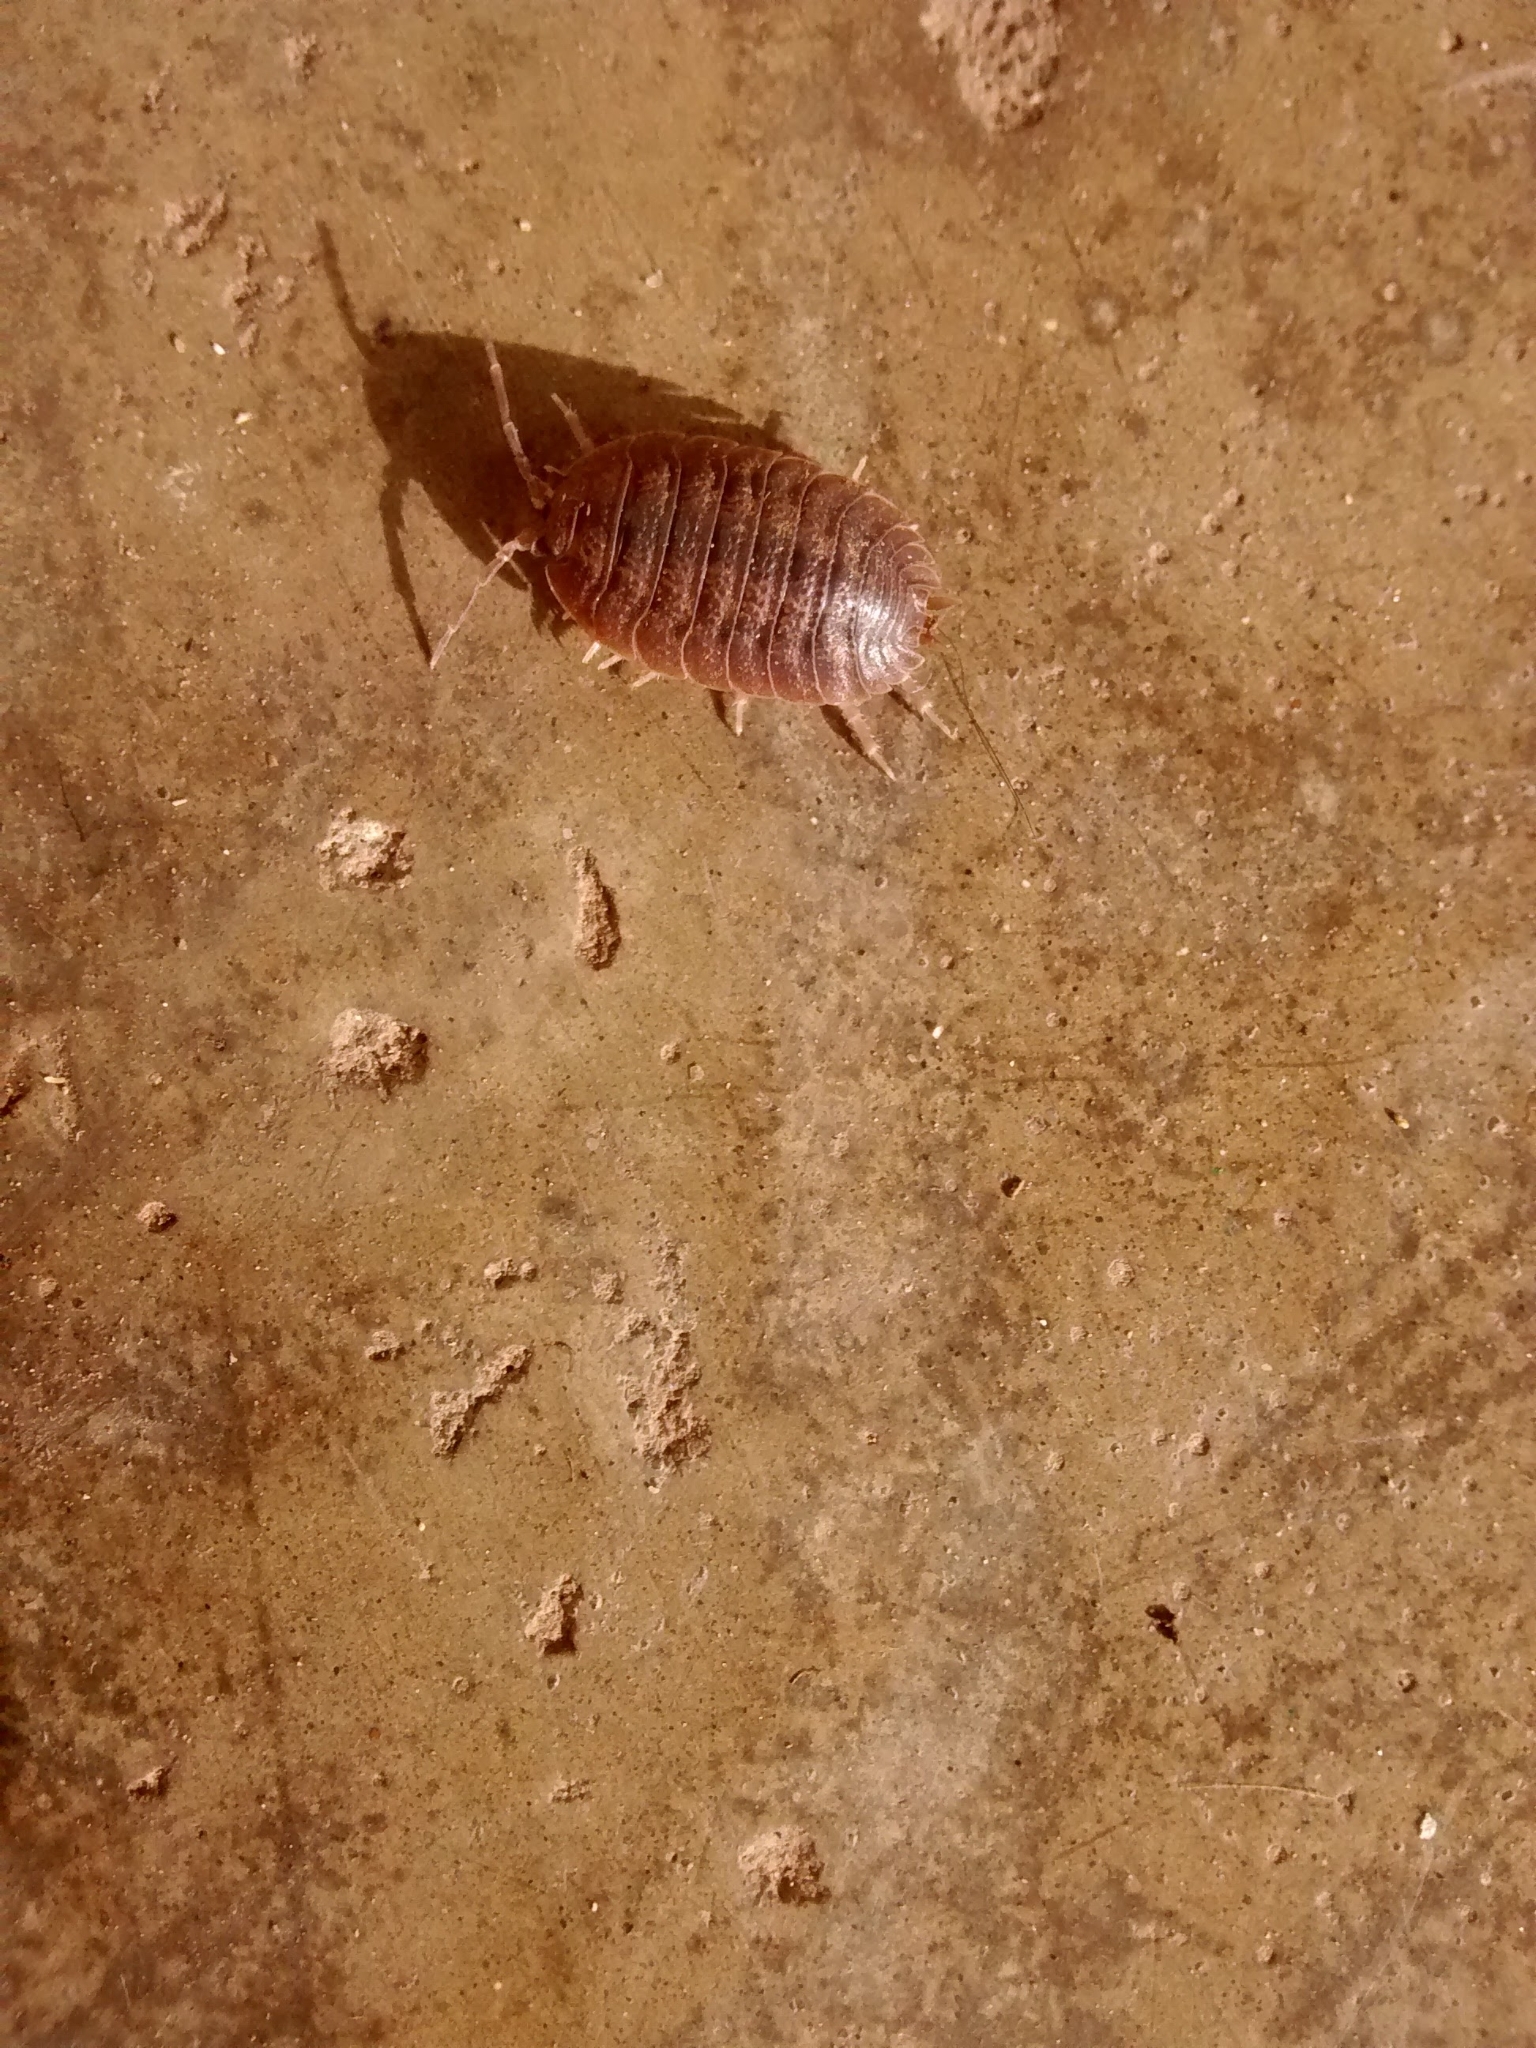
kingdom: Animalia
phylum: Arthropoda
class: Malacostraca
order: Isopoda
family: Porcellionidae
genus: Porcellio
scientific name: Porcellio dilatatus
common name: Isopod
